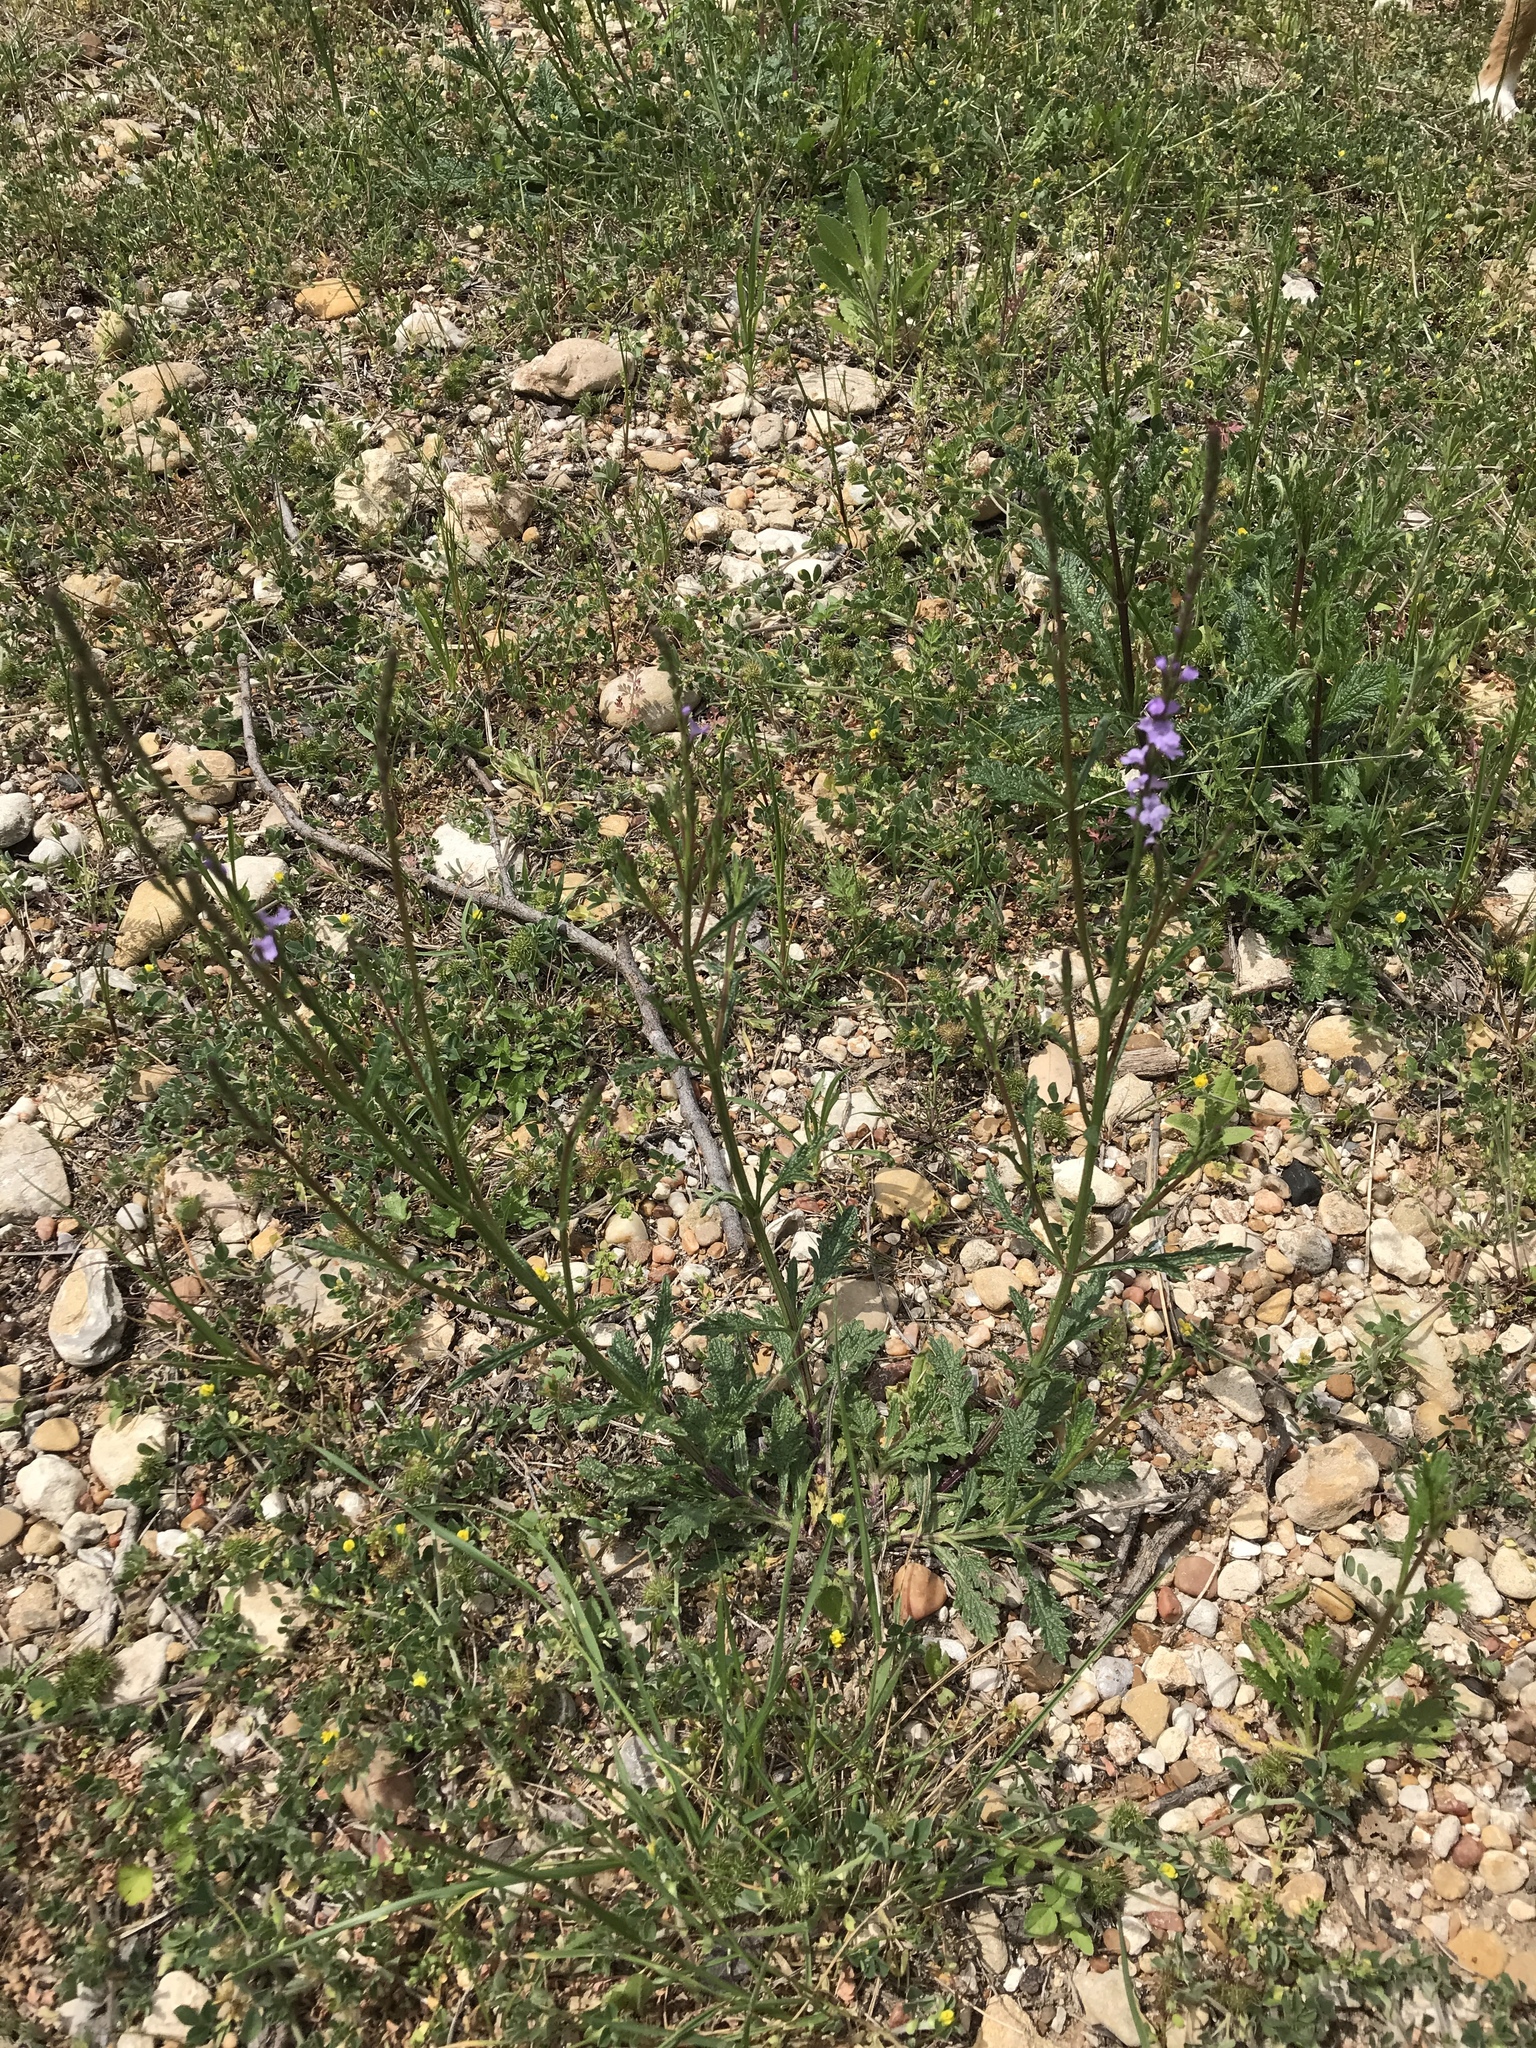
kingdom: Plantae
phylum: Tracheophyta
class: Magnoliopsida
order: Lamiales
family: Verbenaceae
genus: Verbena
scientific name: Verbena halei
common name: Texas vervain
